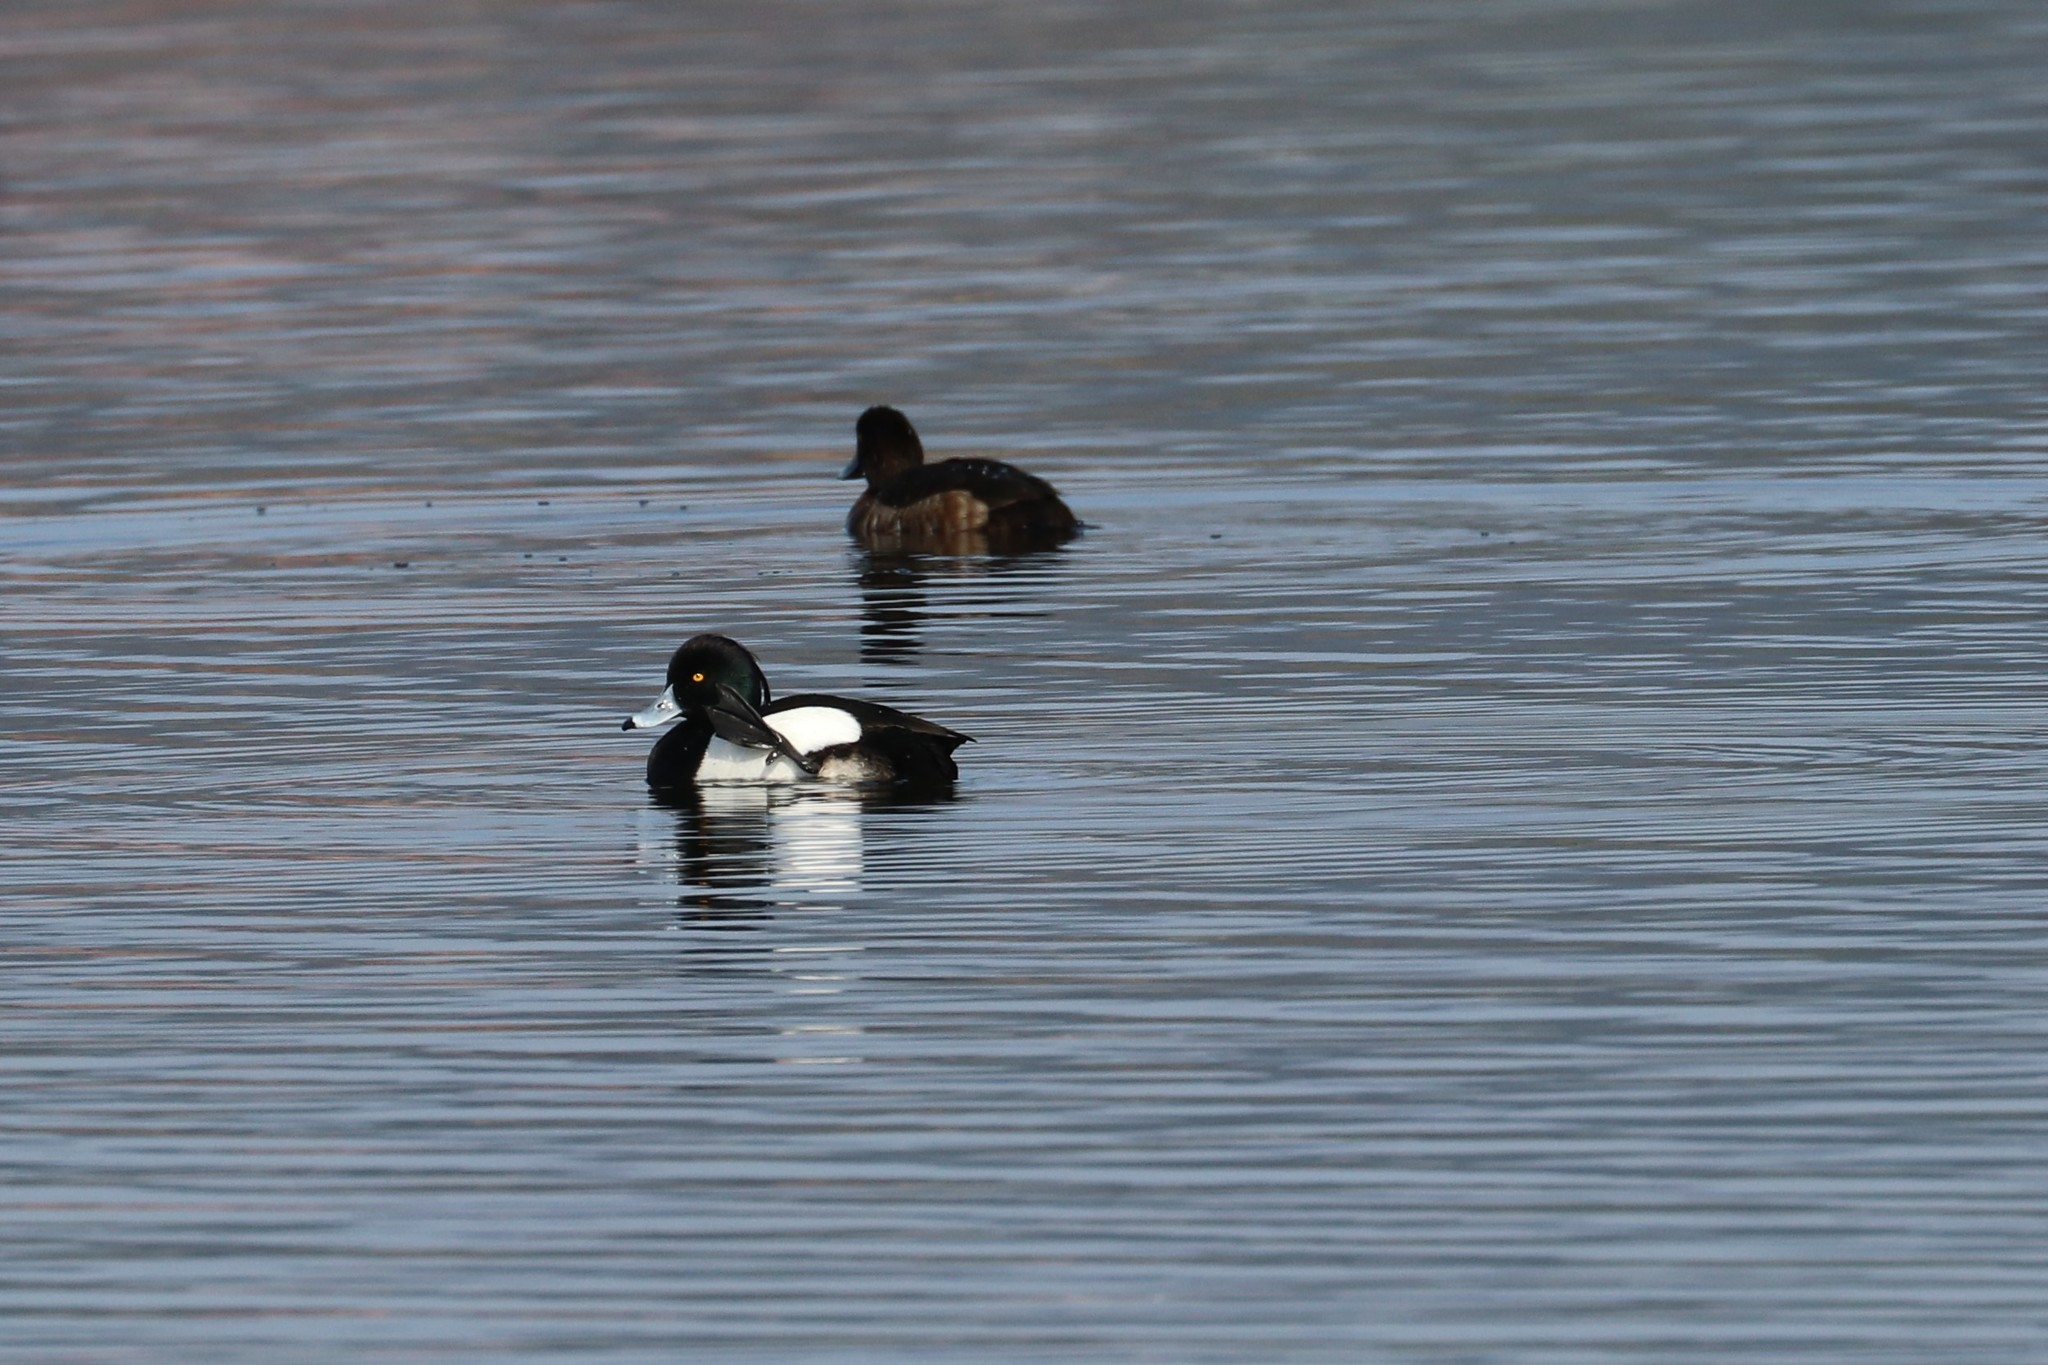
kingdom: Animalia
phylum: Chordata
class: Aves
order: Anseriformes
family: Anatidae
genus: Aythya
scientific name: Aythya fuligula
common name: Tufted duck
